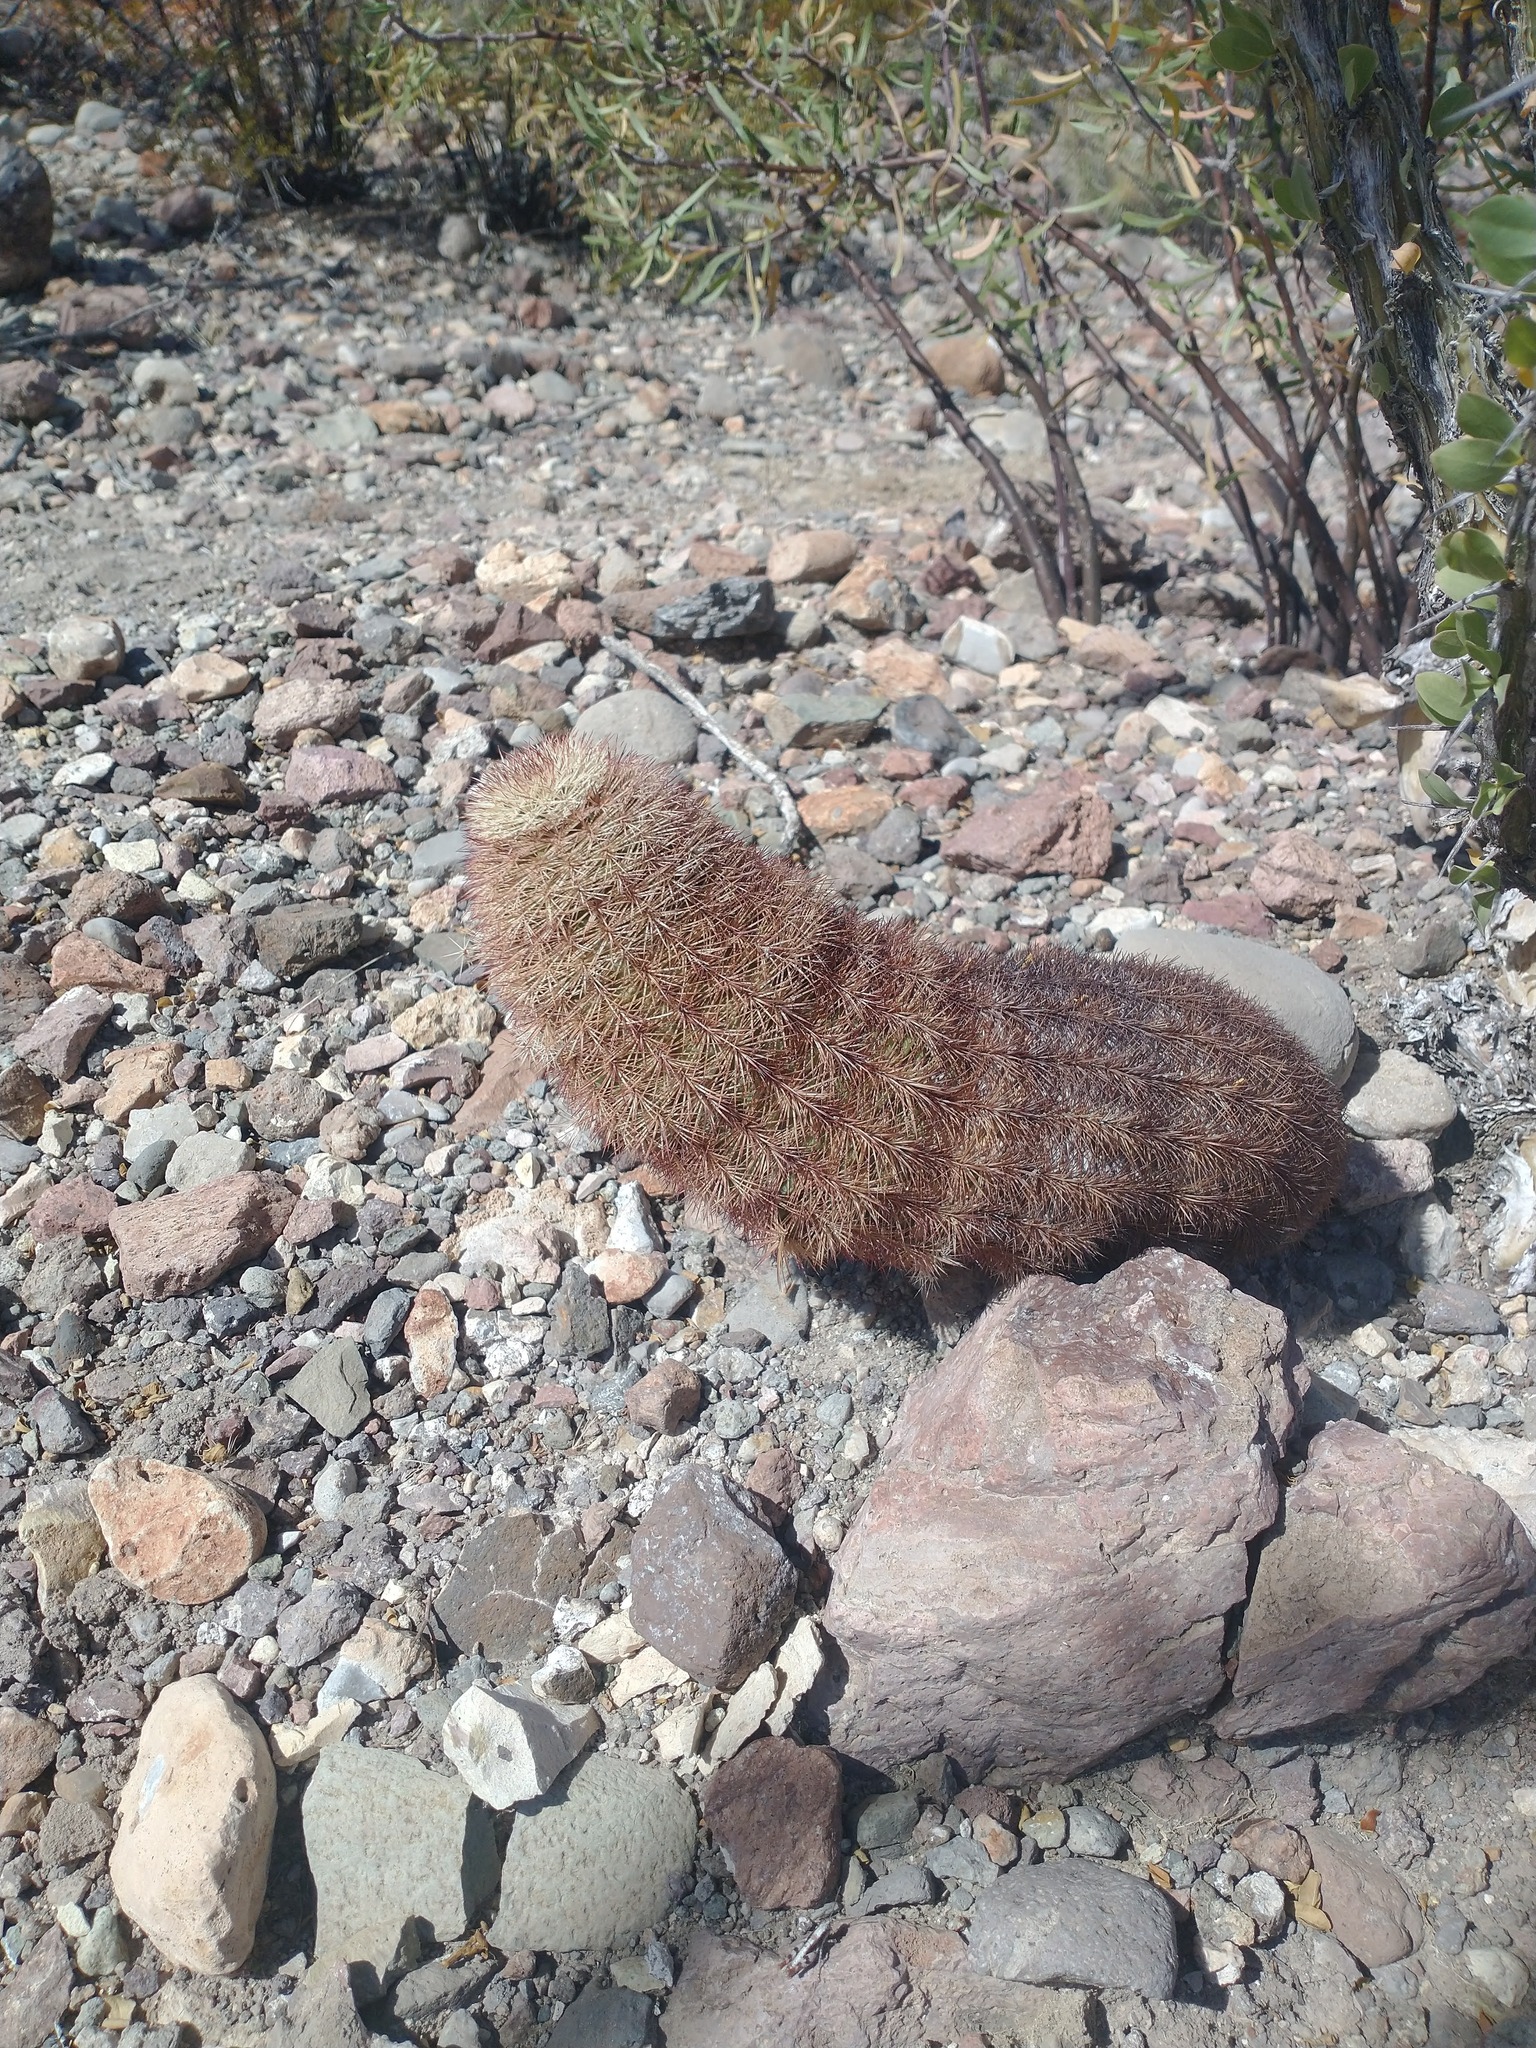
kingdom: Plantae
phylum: Tracheophyta
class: Magnoliopsida
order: Caryophyllales
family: Cactaceae
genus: Echinocereus
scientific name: Echinocereus dasyacanthus
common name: Spiny hedgehog cactus
